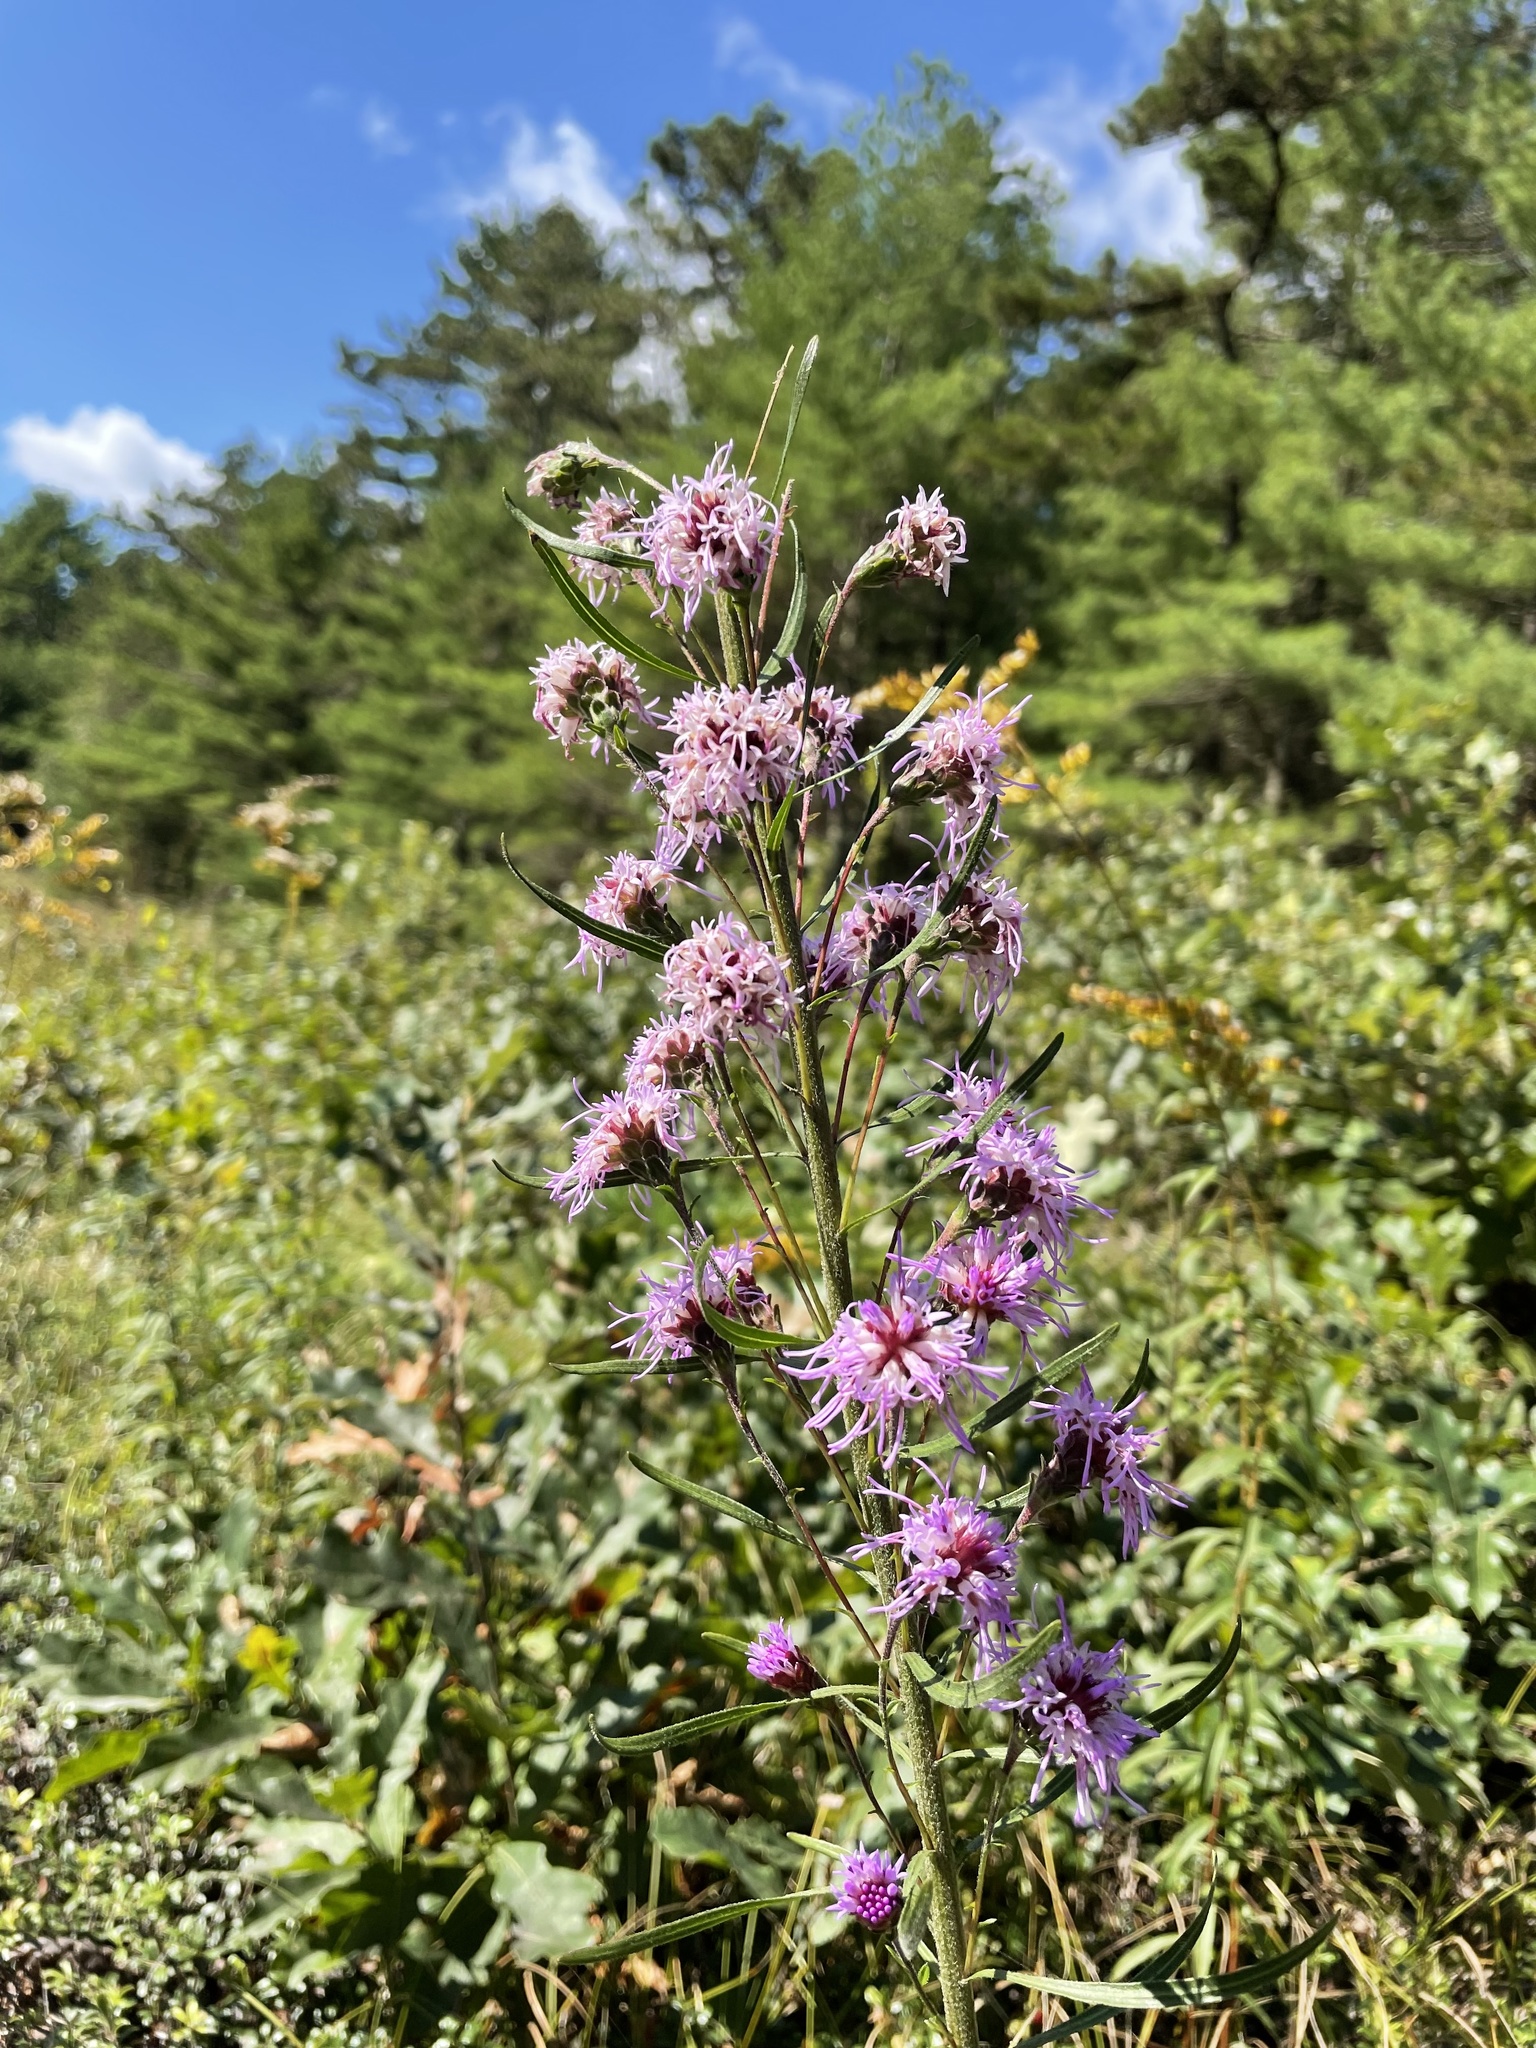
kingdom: Plantae
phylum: Tracheophyta
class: Magnoliopsida
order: Asterales
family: Asteraceae
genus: Liatris
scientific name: Liatris scariosa
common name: Northern gayfeather
